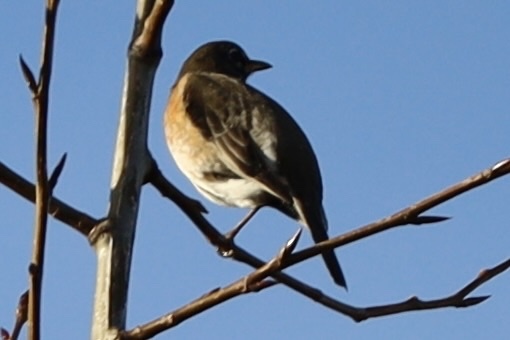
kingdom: Animalia
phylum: Chordata
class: Aves
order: Passeriformes
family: Turdidae
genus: Turdus
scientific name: Turdus migratorius
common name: American robin
